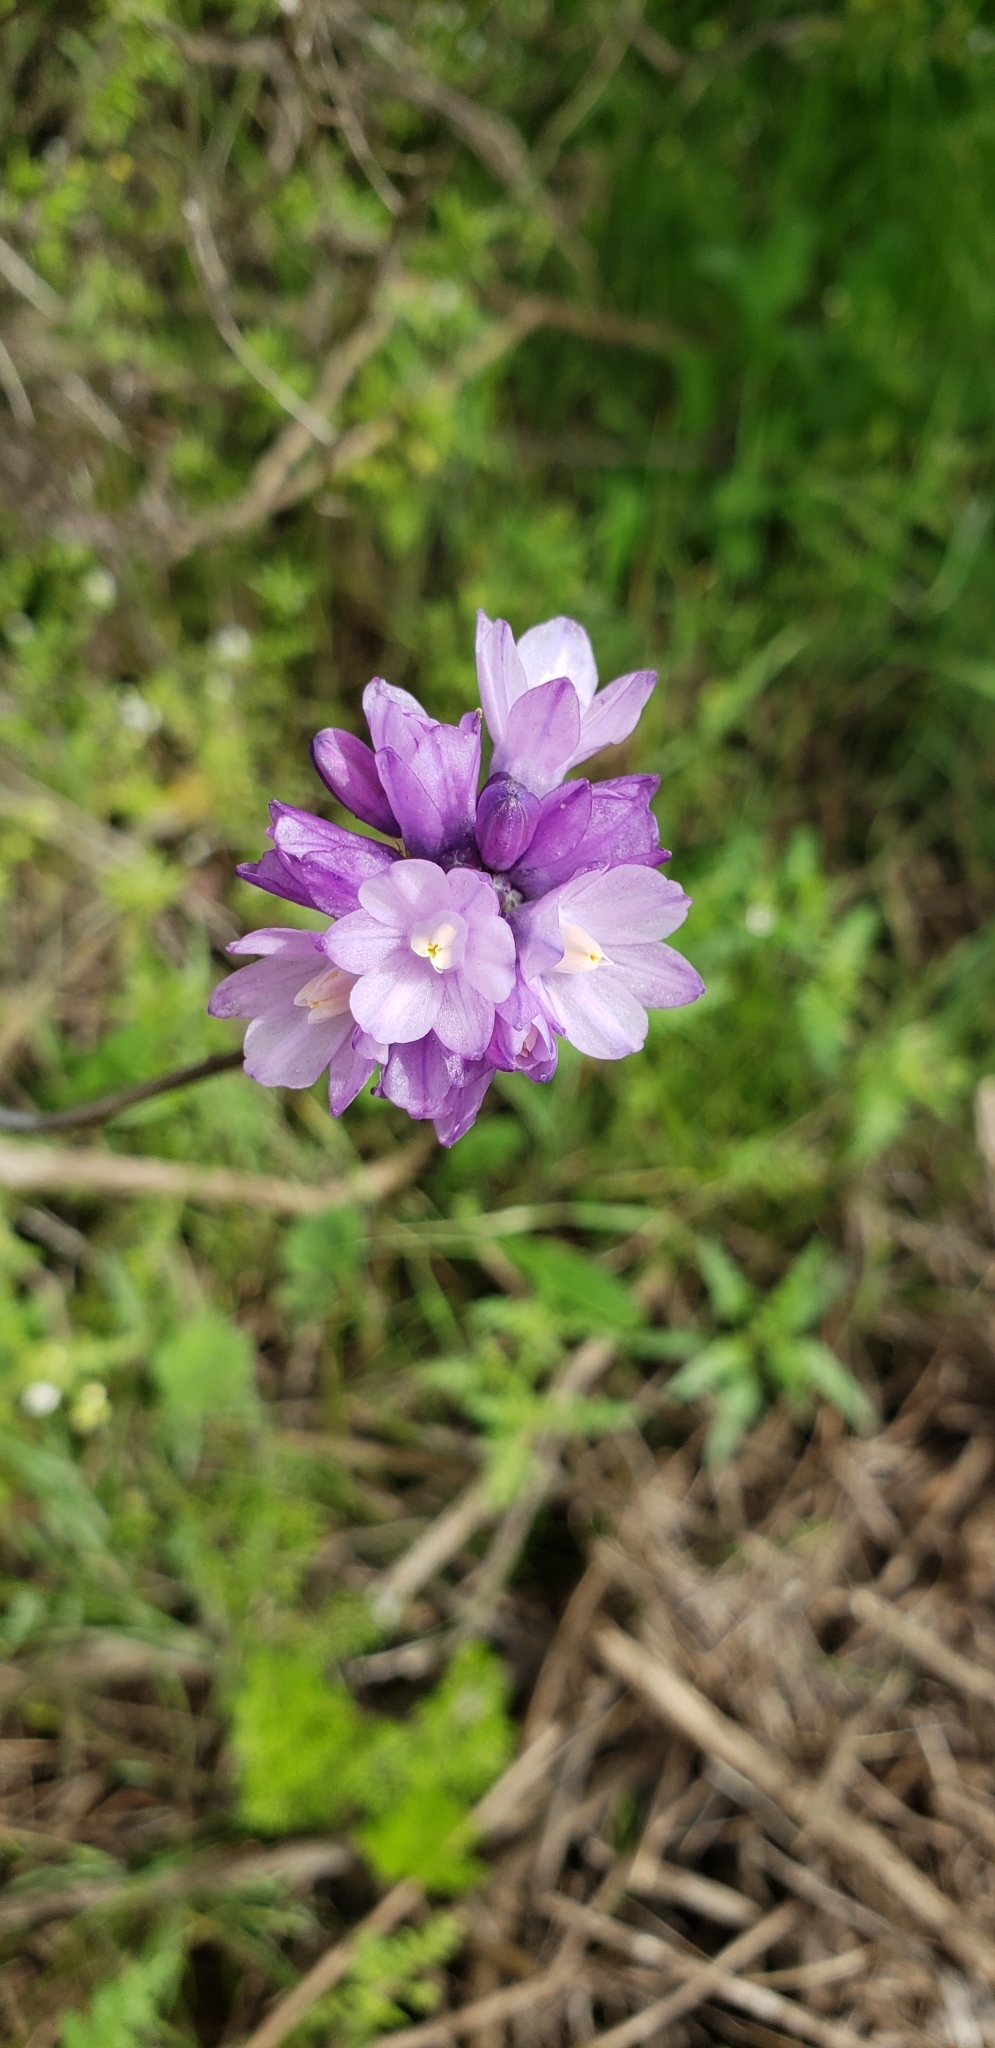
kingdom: Plantae
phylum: Tracheophyta
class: Liliopsida
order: Asparagales
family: Asparagaceae
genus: Dipterostemon
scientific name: Dipterostemon capitatus
